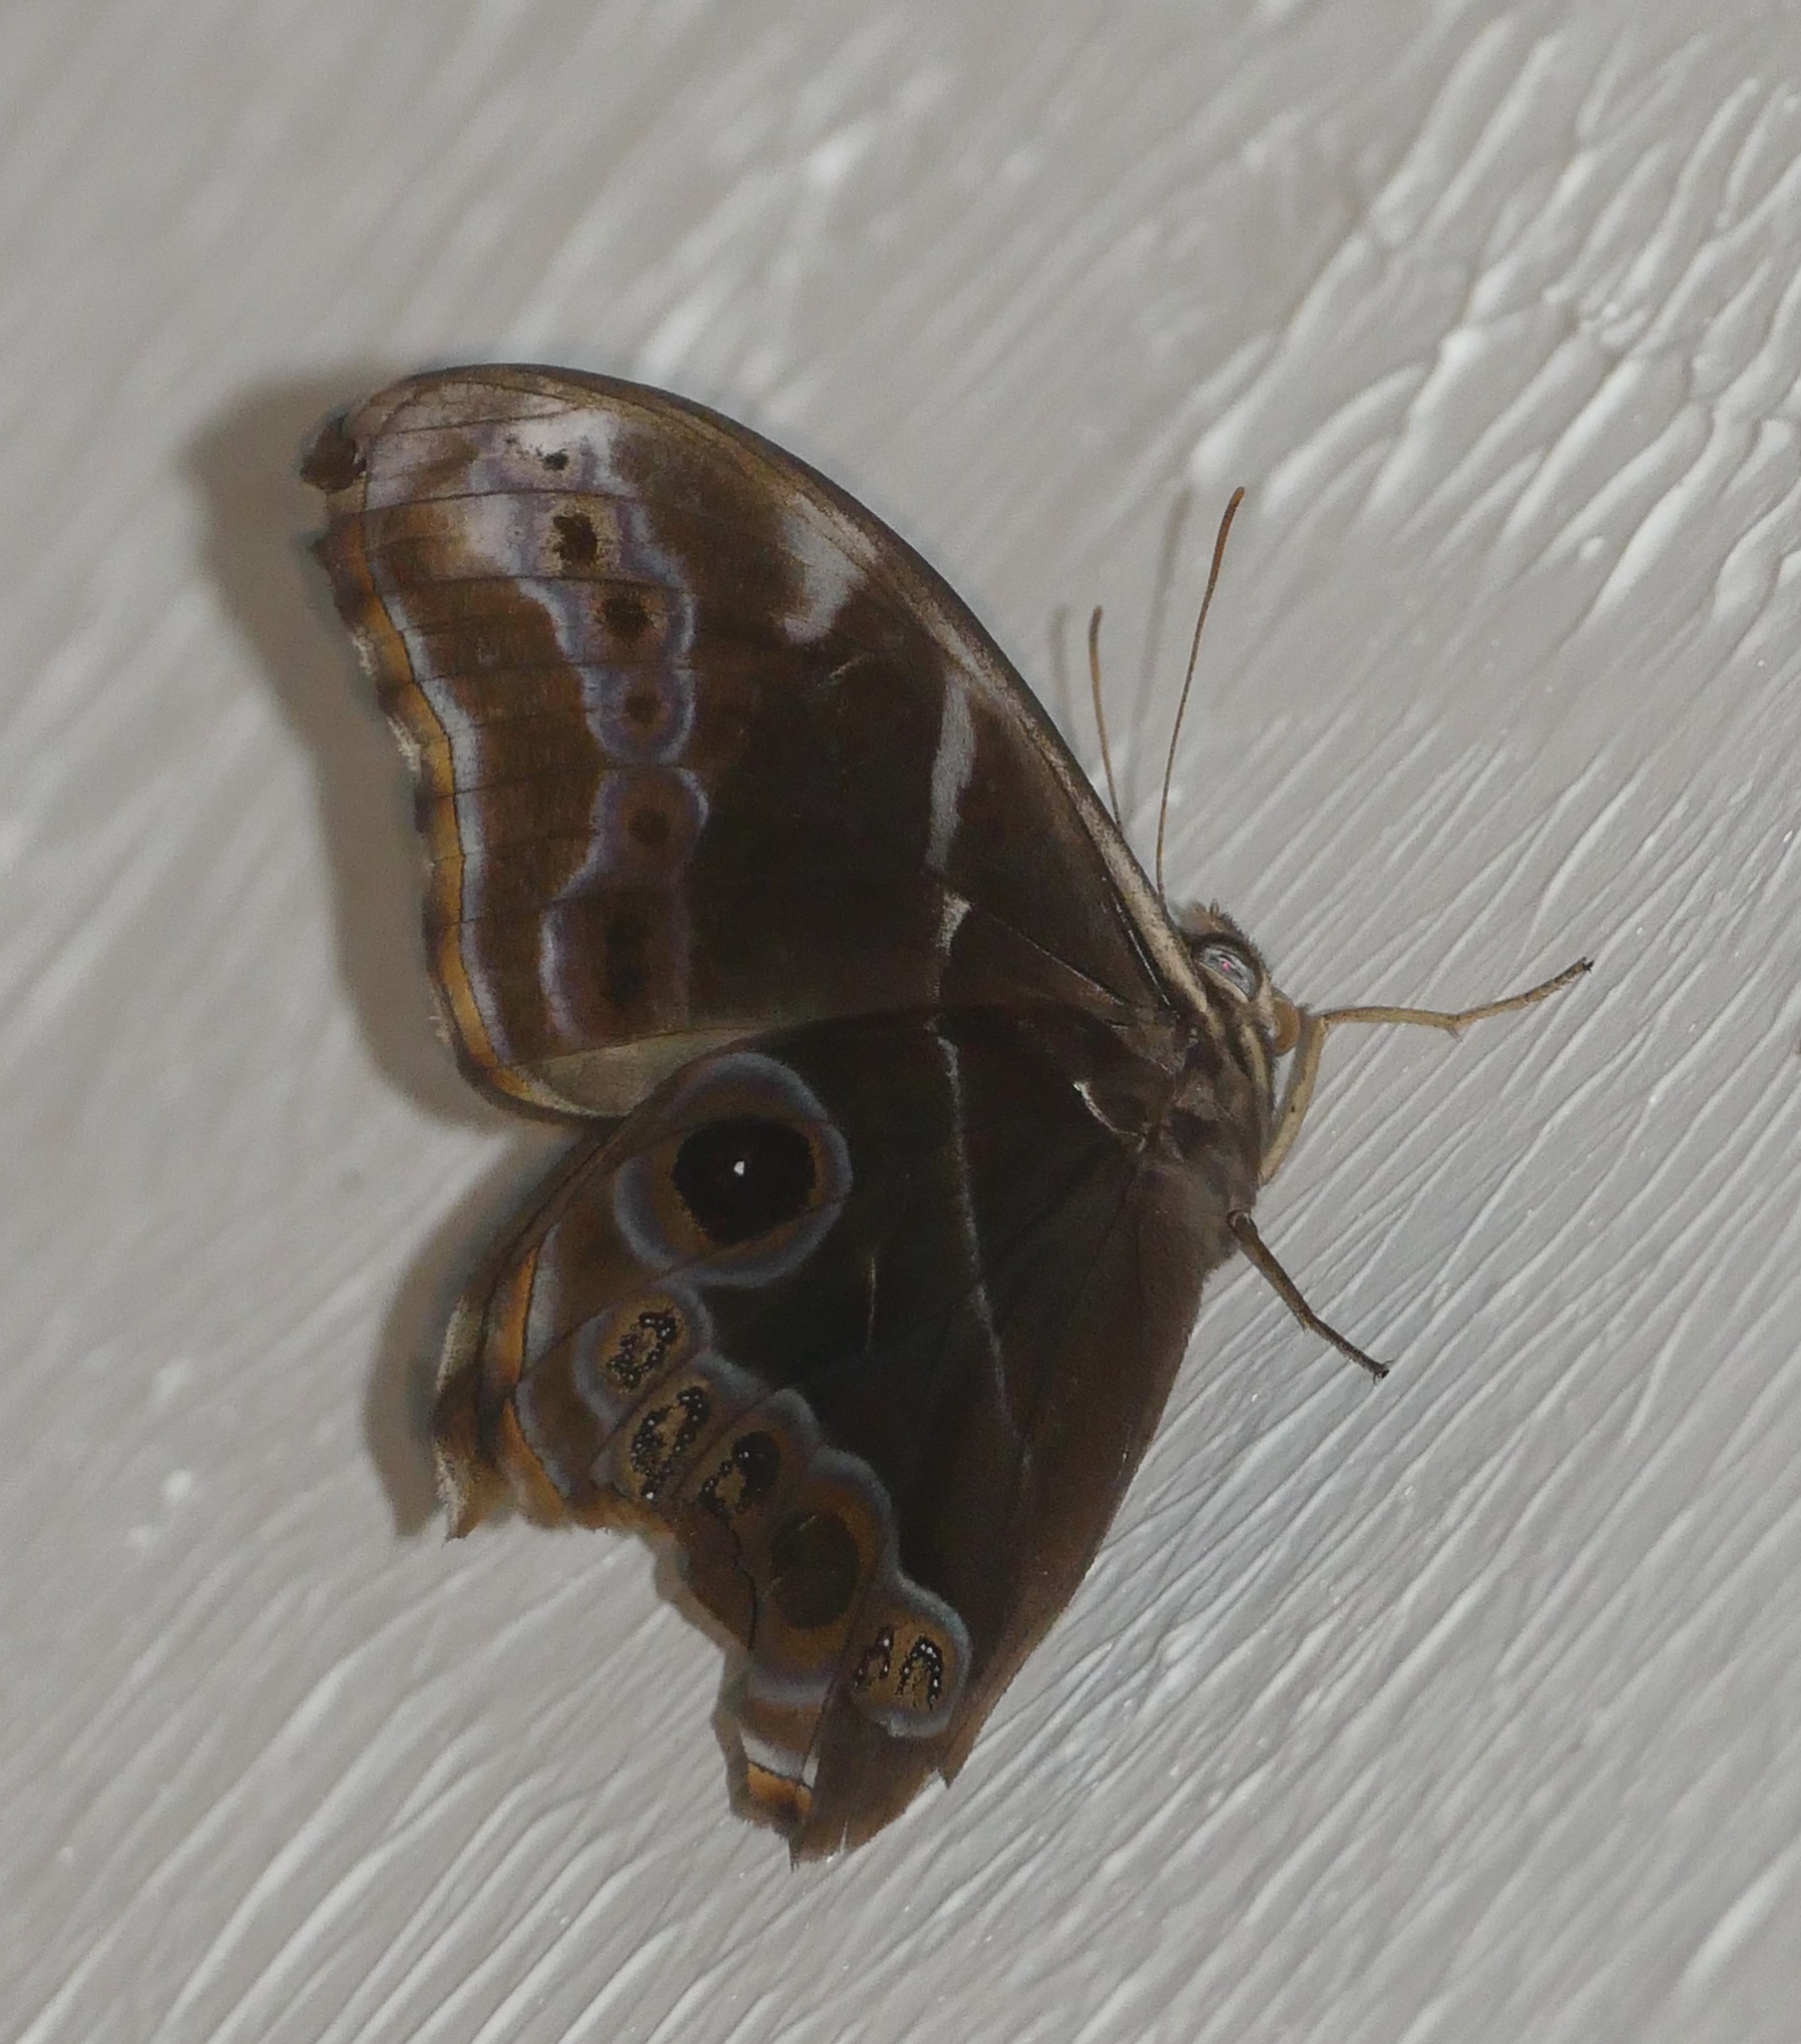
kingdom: Animalia
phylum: Arthropoda
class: Insecta
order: Lepidoptera
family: Nymphalidae
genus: Lethe
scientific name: Lethe arete
